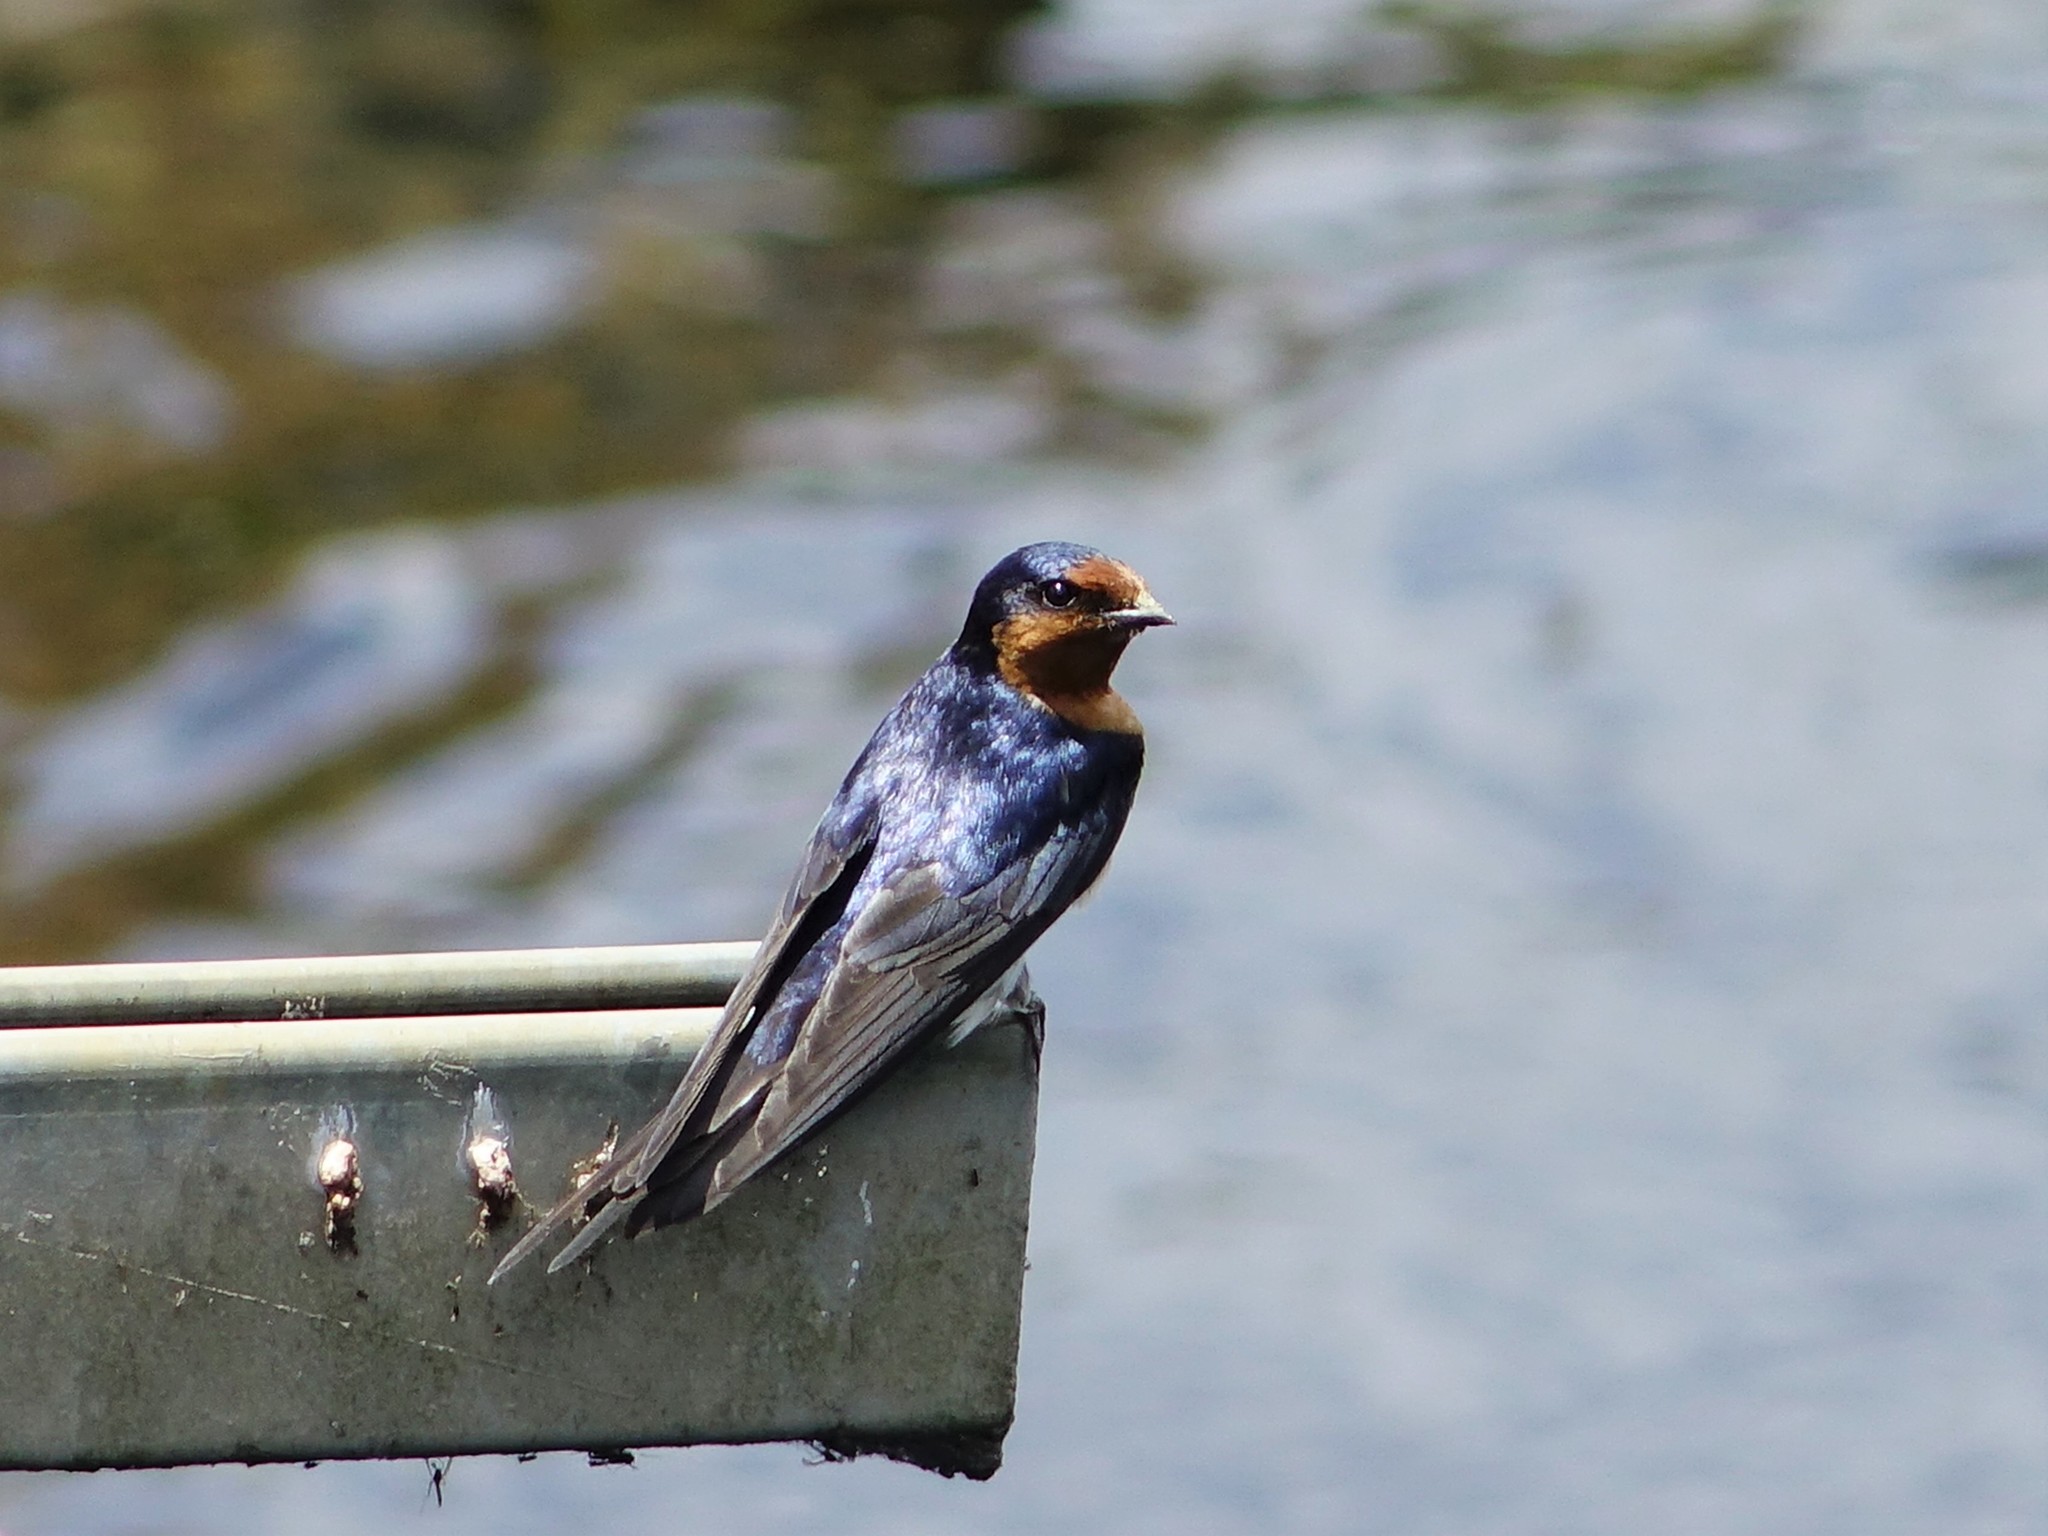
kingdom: Animalia
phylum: Chordata
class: Aves
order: Passeriformes
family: Hirundinidae
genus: Hirundo
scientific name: Hirundo neoxena
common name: Welcome swallow
